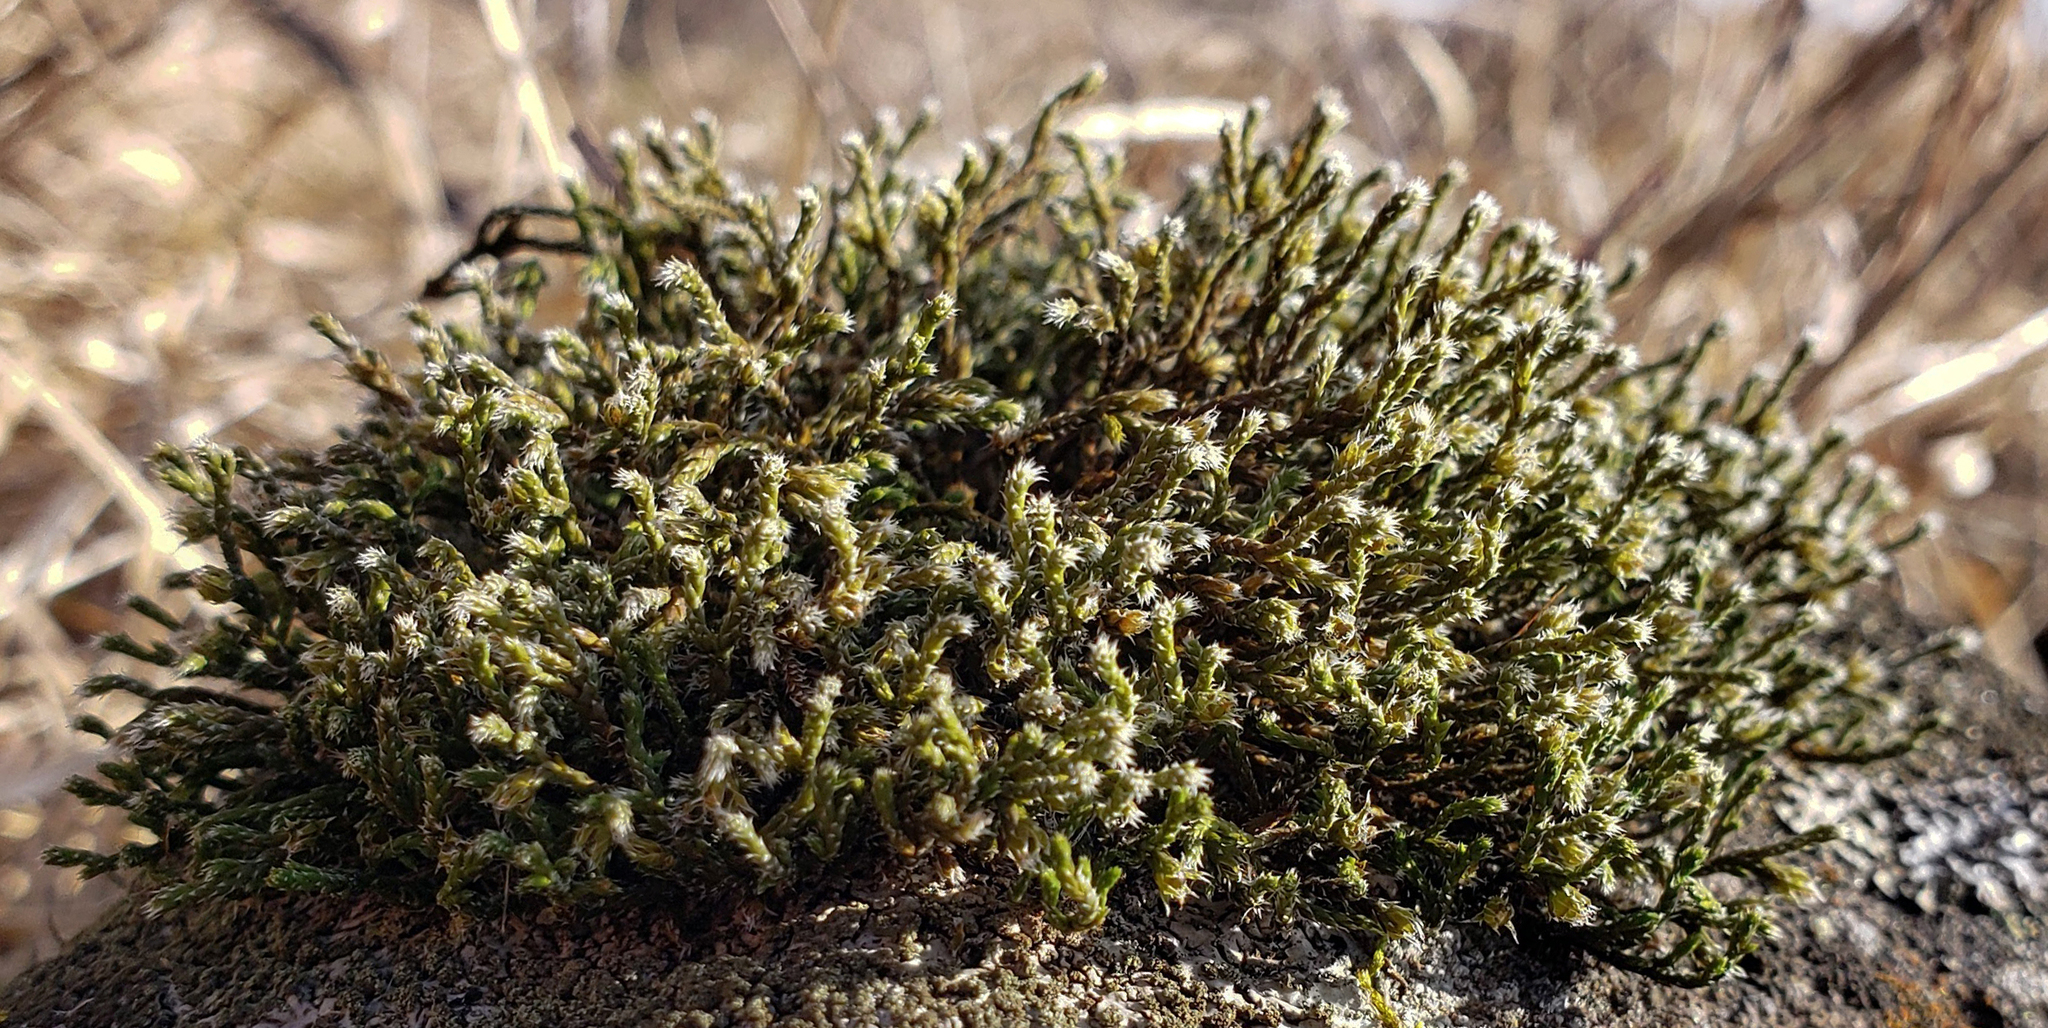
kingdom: Plantae
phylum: Bryophyta
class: Bryopsida
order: Hedwigiales
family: Hedwigiaceae
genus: Hedwigia
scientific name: Hedwigia ciliata
